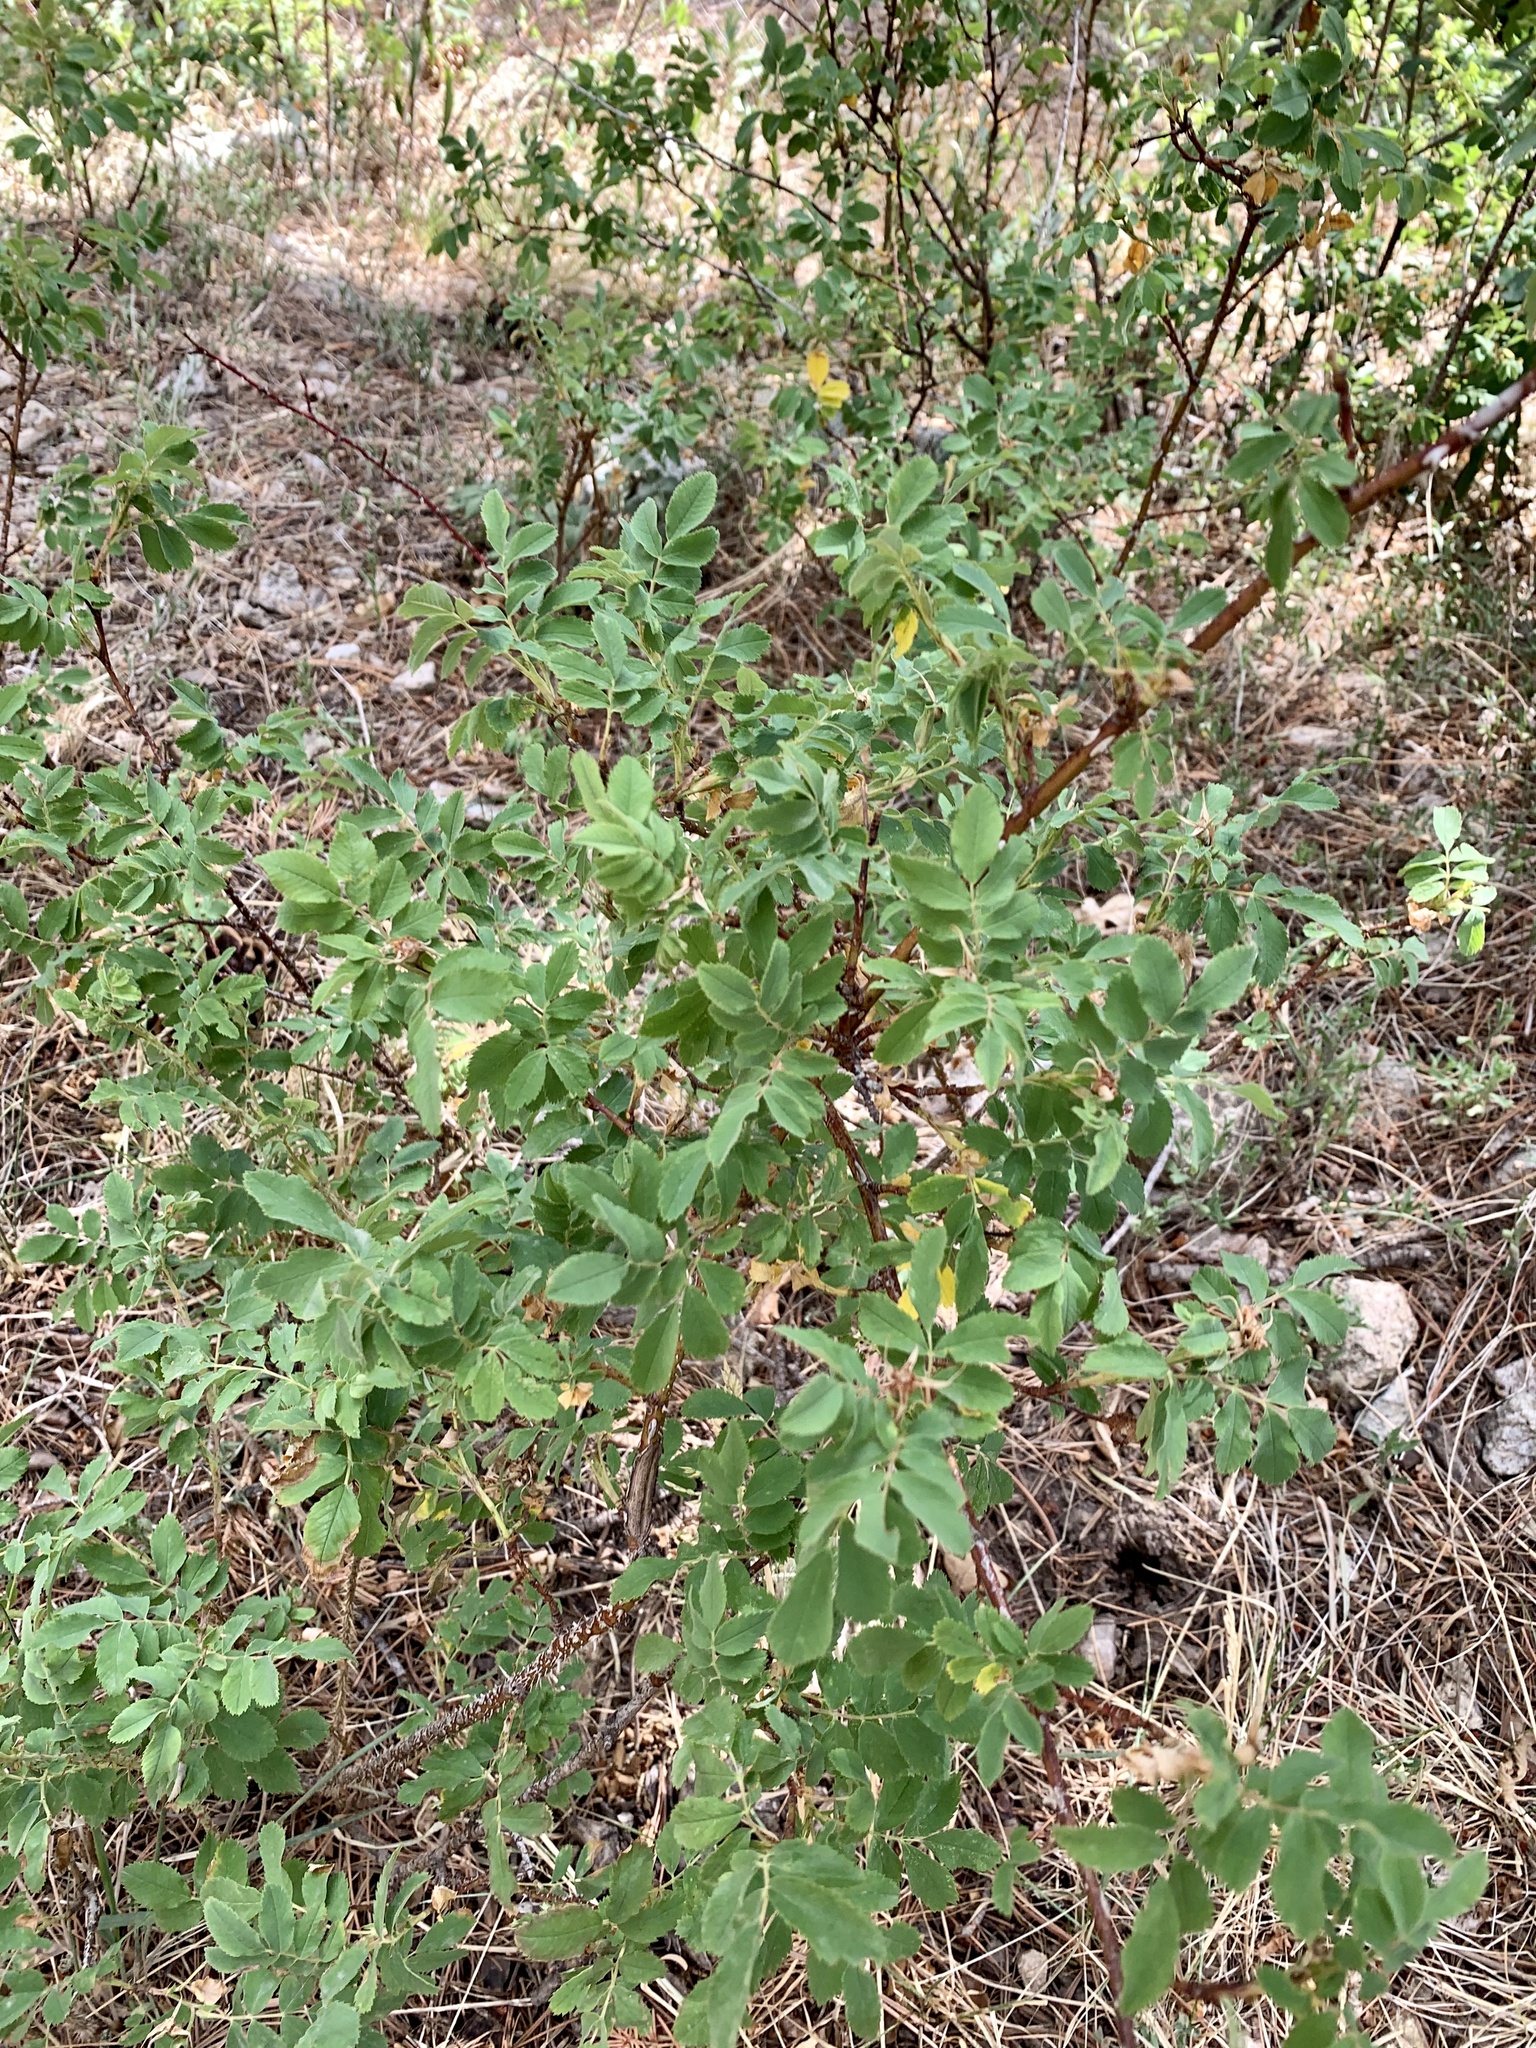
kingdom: Plantae
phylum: Tracheophyta
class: Magnoliopsida
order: Rosales
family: Rosaceae
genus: Rosa
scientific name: Rosa woodsii
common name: Woods's rose
